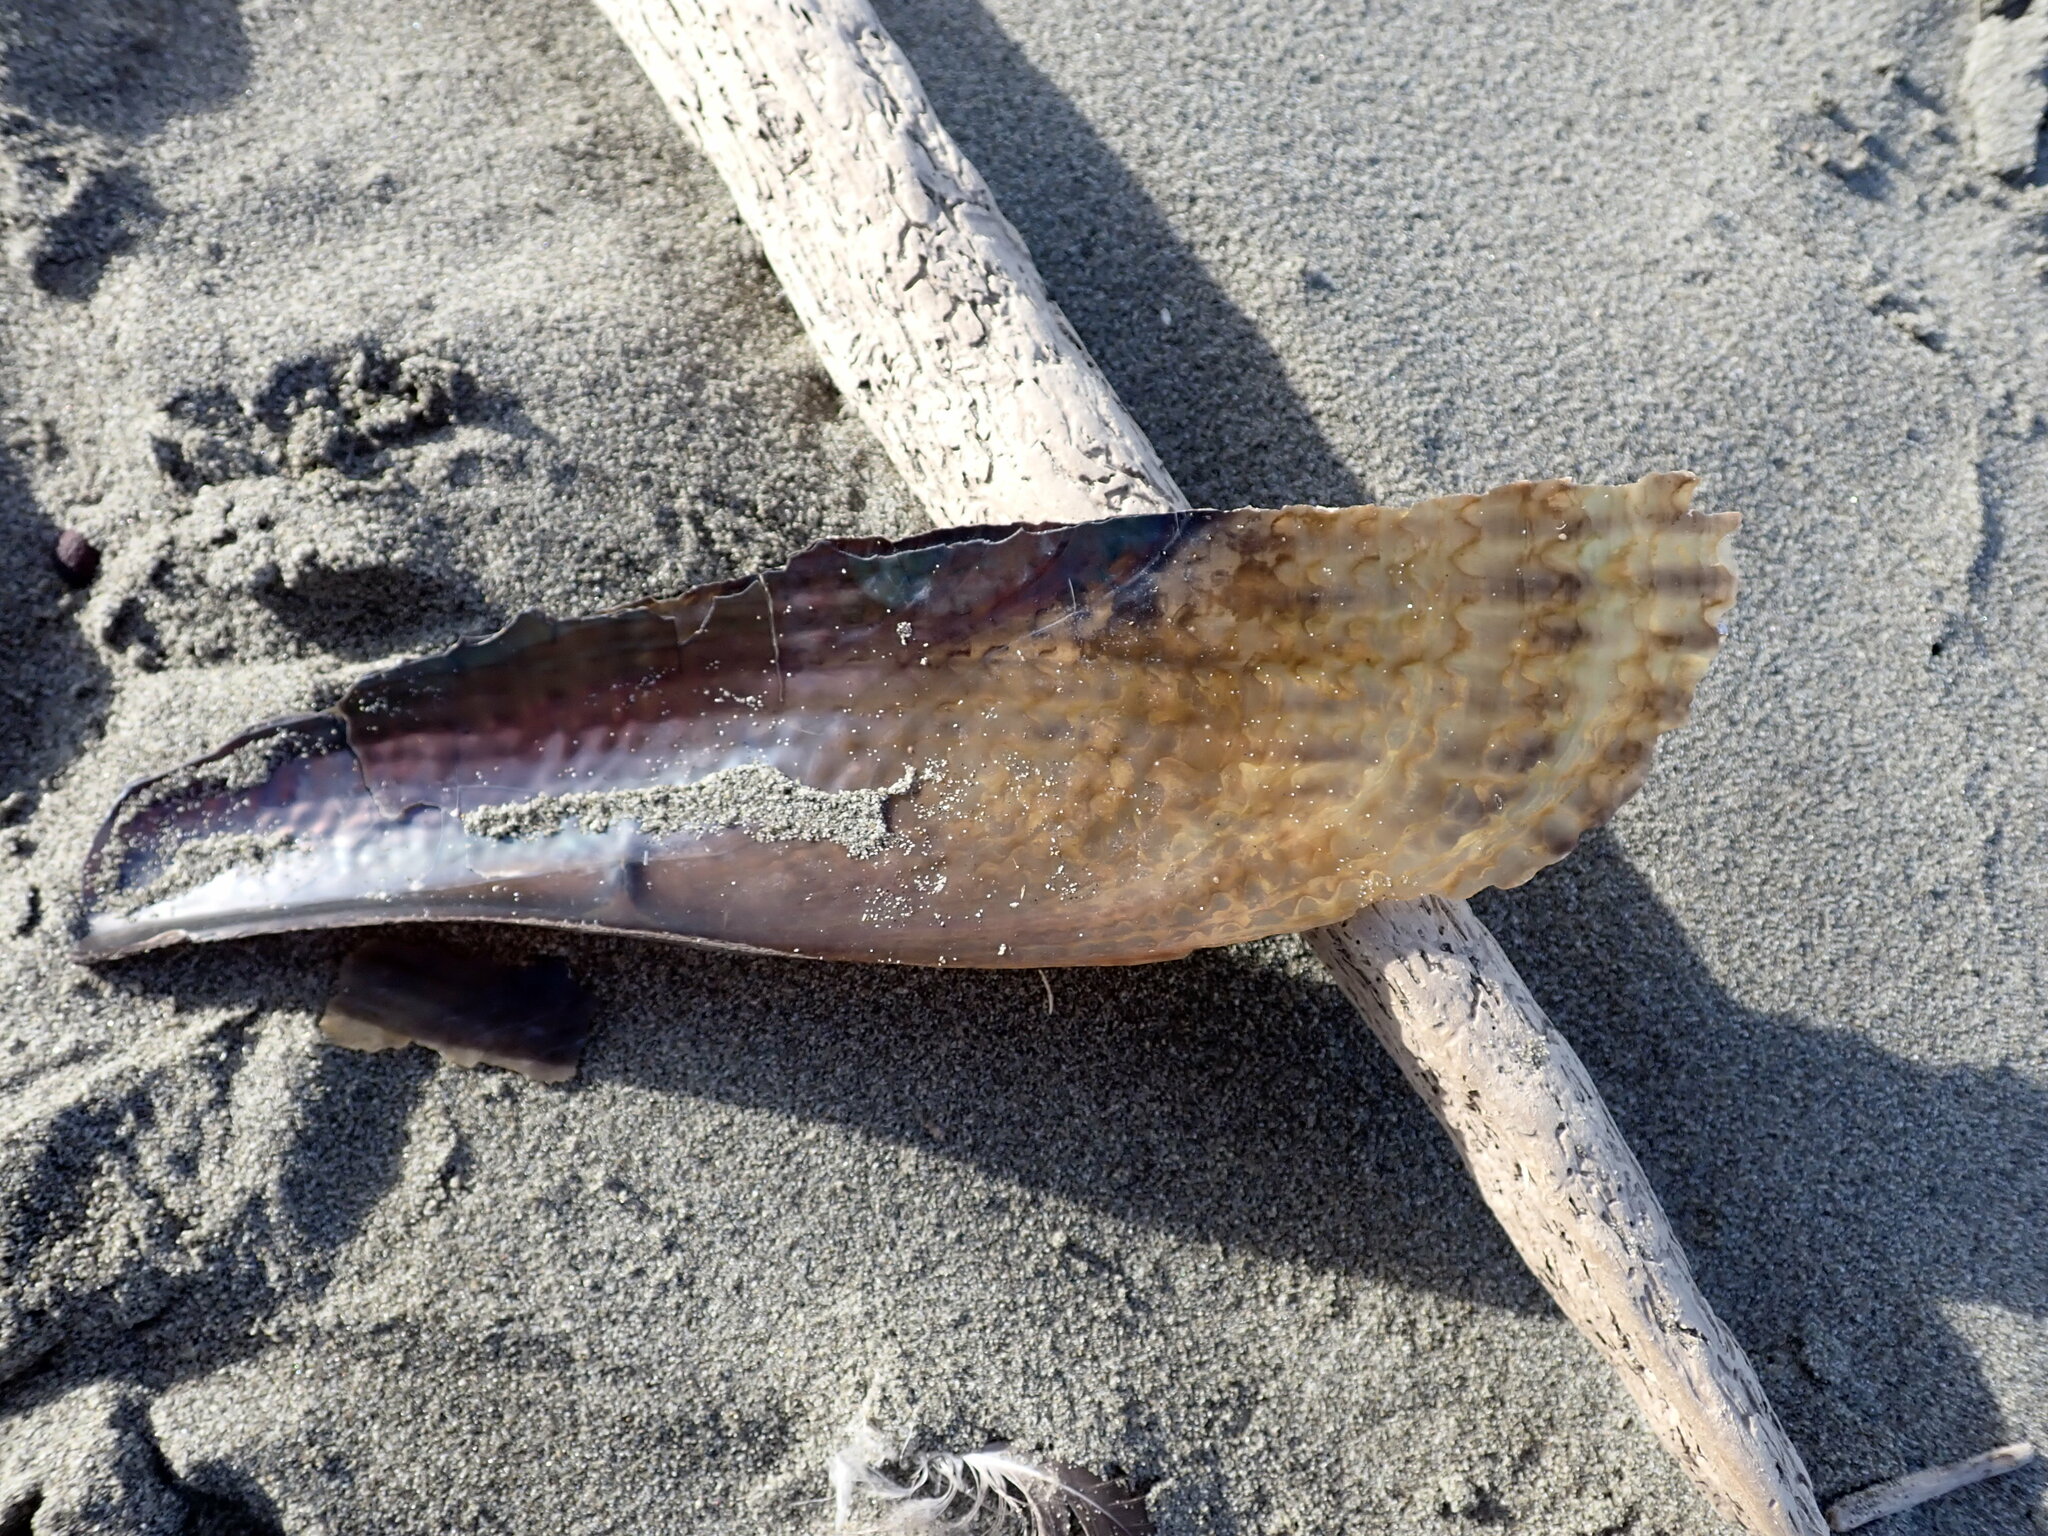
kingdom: Animalia
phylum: Mollusca
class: Bivalvia
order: Ostreida
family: Pinnidae
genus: Atrina
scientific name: Atrina zelandica
